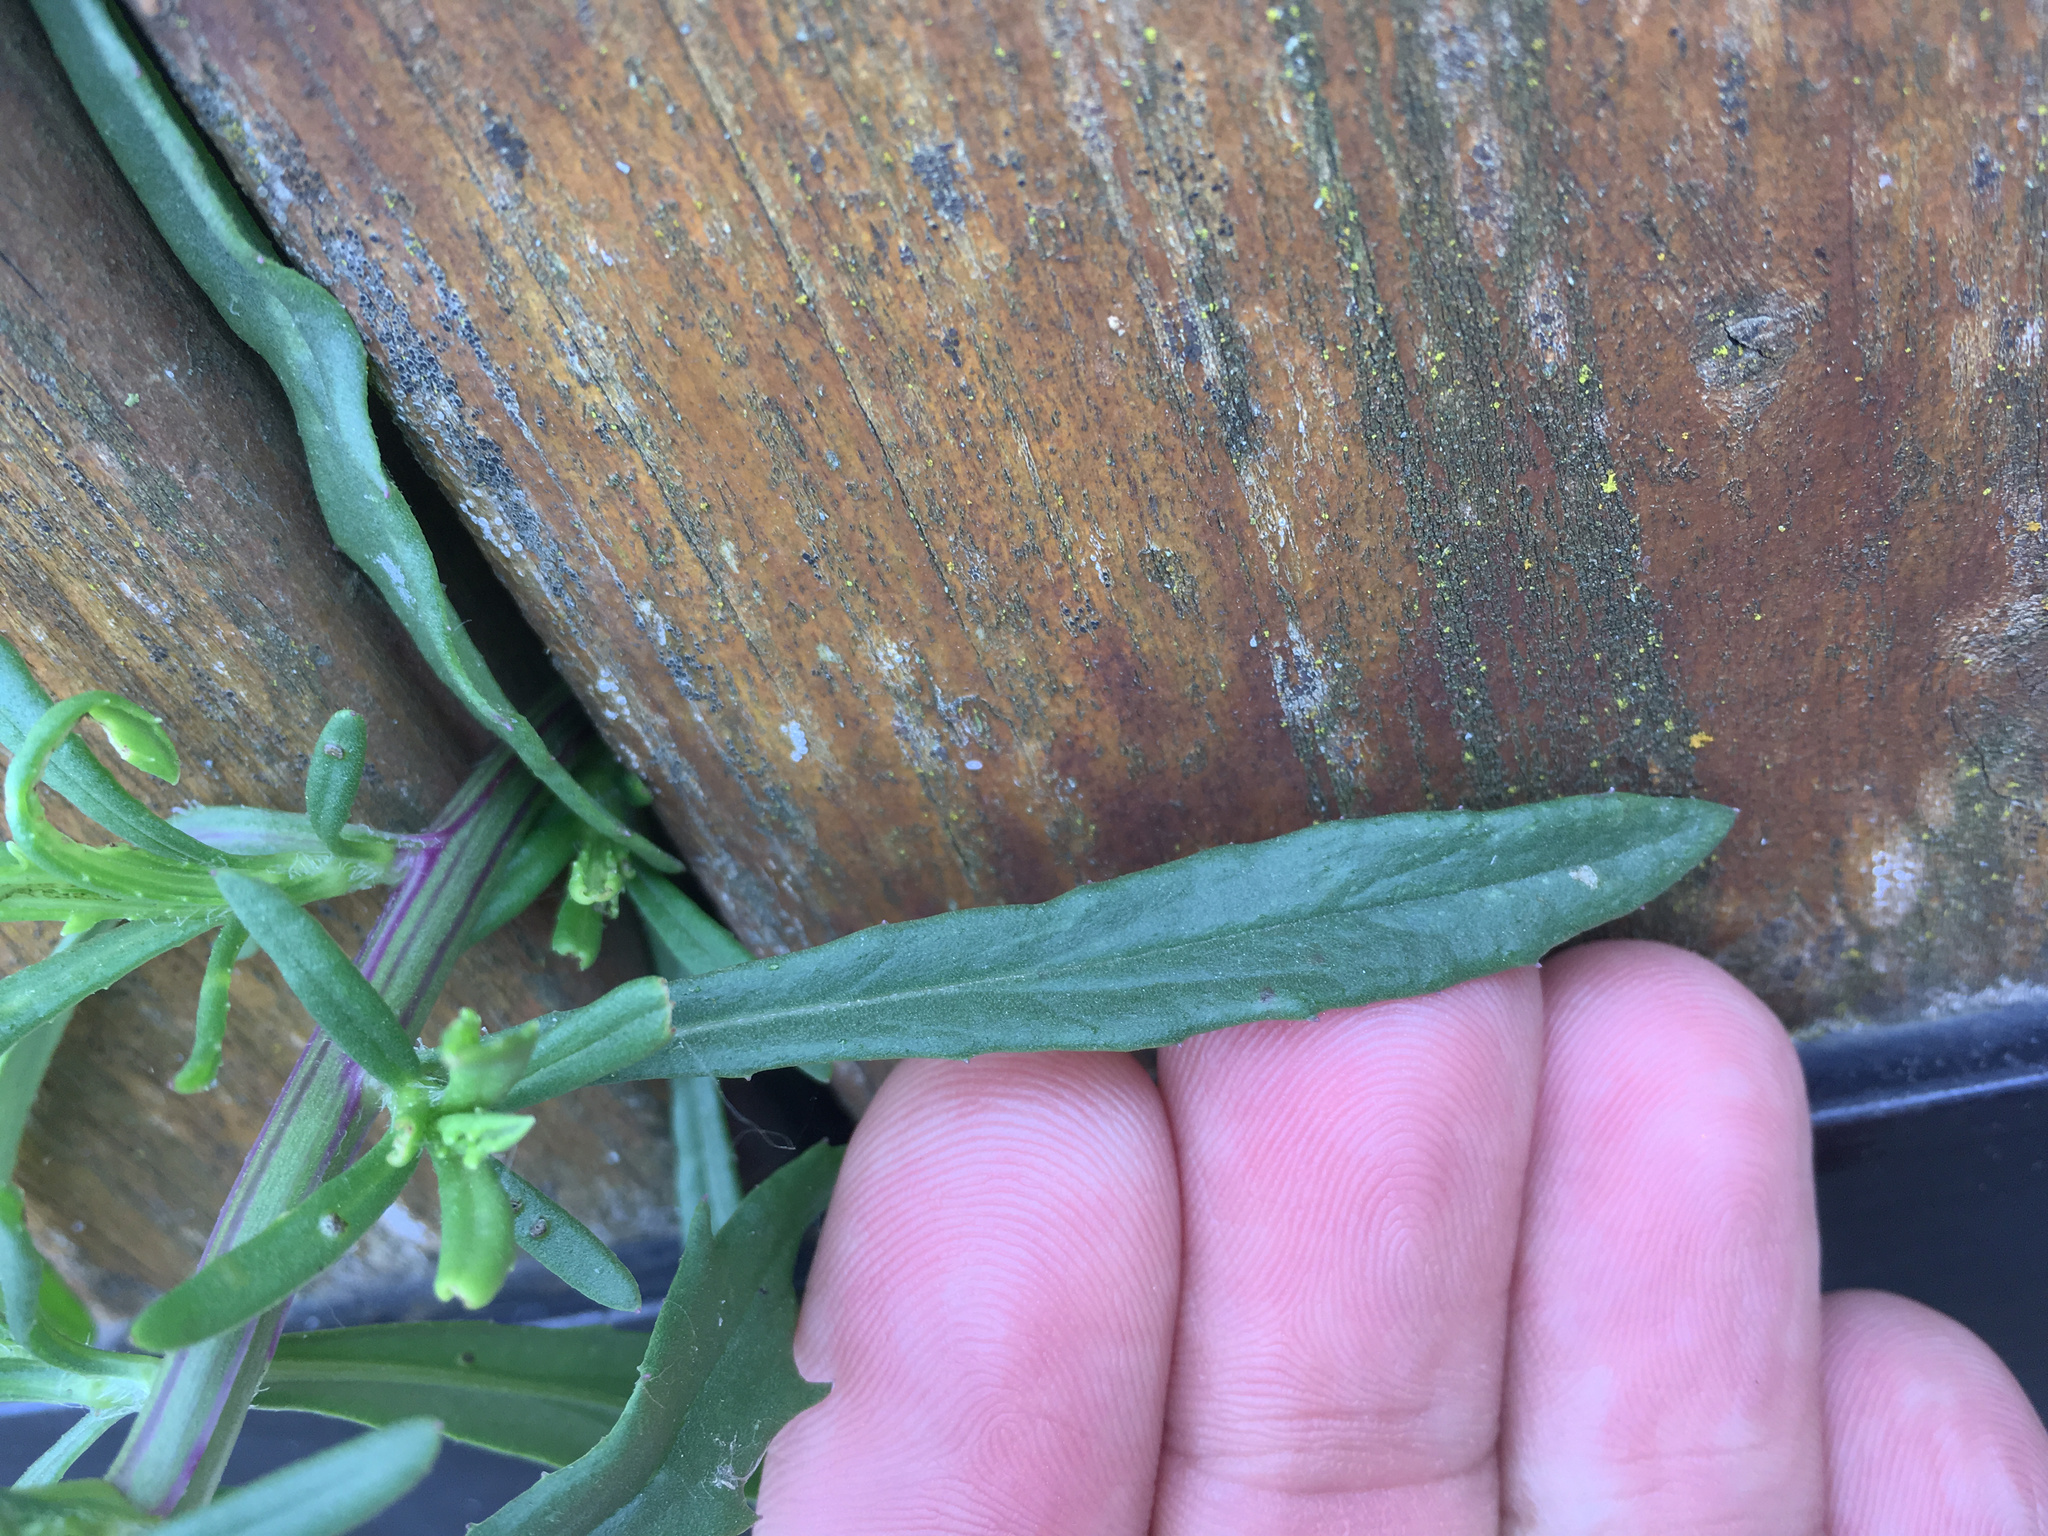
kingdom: Plantae
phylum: Tracheophyta
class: Magnoliopsida
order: Asterales
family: Asteraceae
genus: Senecio
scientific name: Senecio skirrhodon
